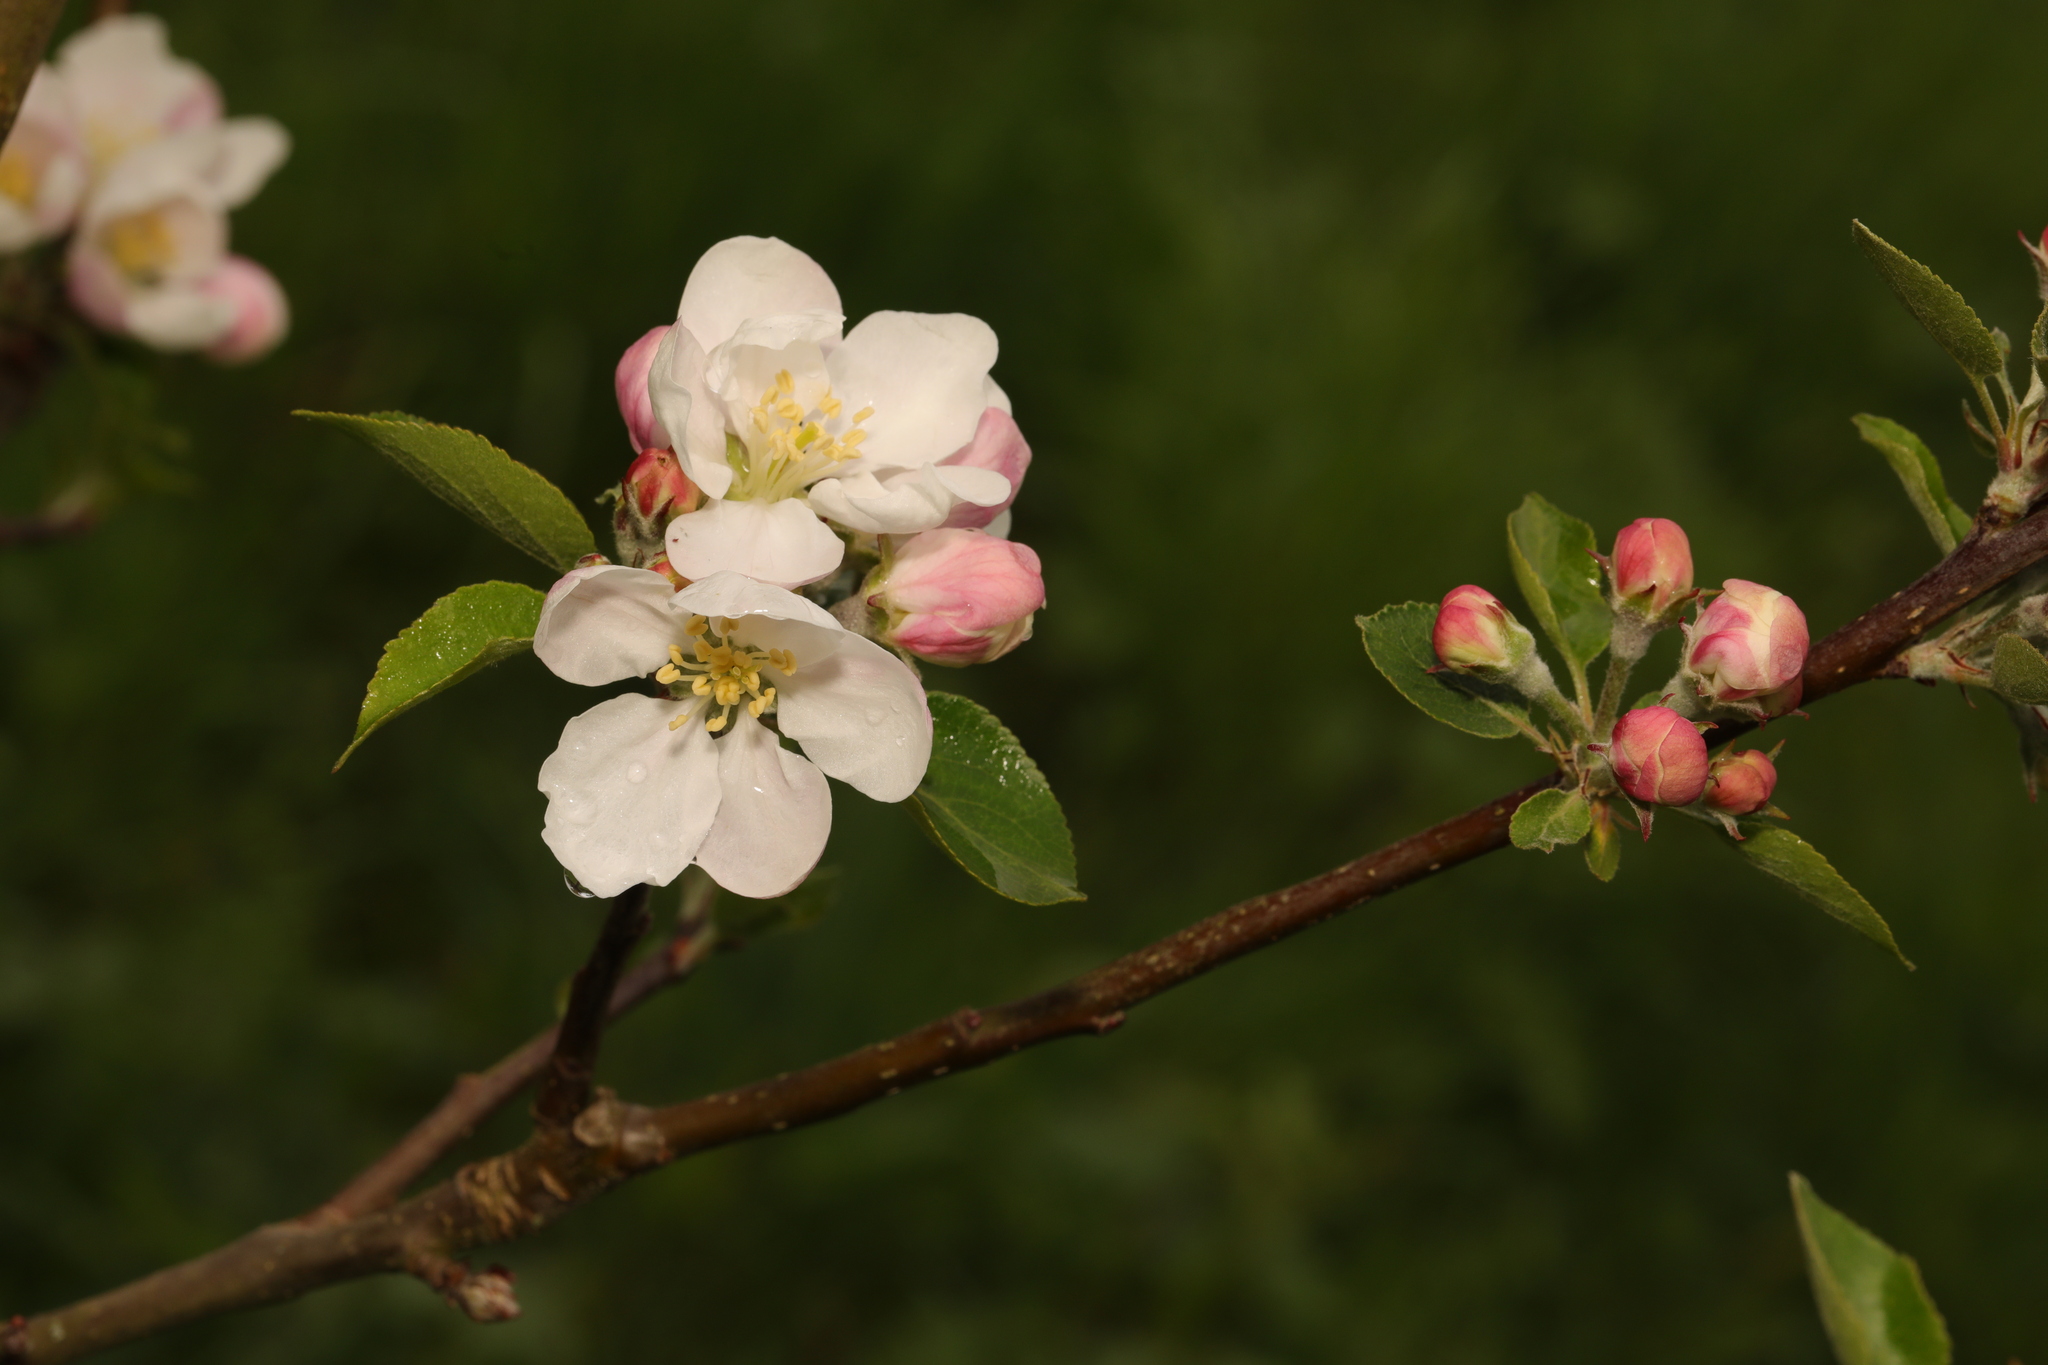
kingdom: Plantae
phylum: Tracheophyta
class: Magnoliopsida
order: Rosales
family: Rosaceae
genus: Malus
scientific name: Malus domestica
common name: Apple
